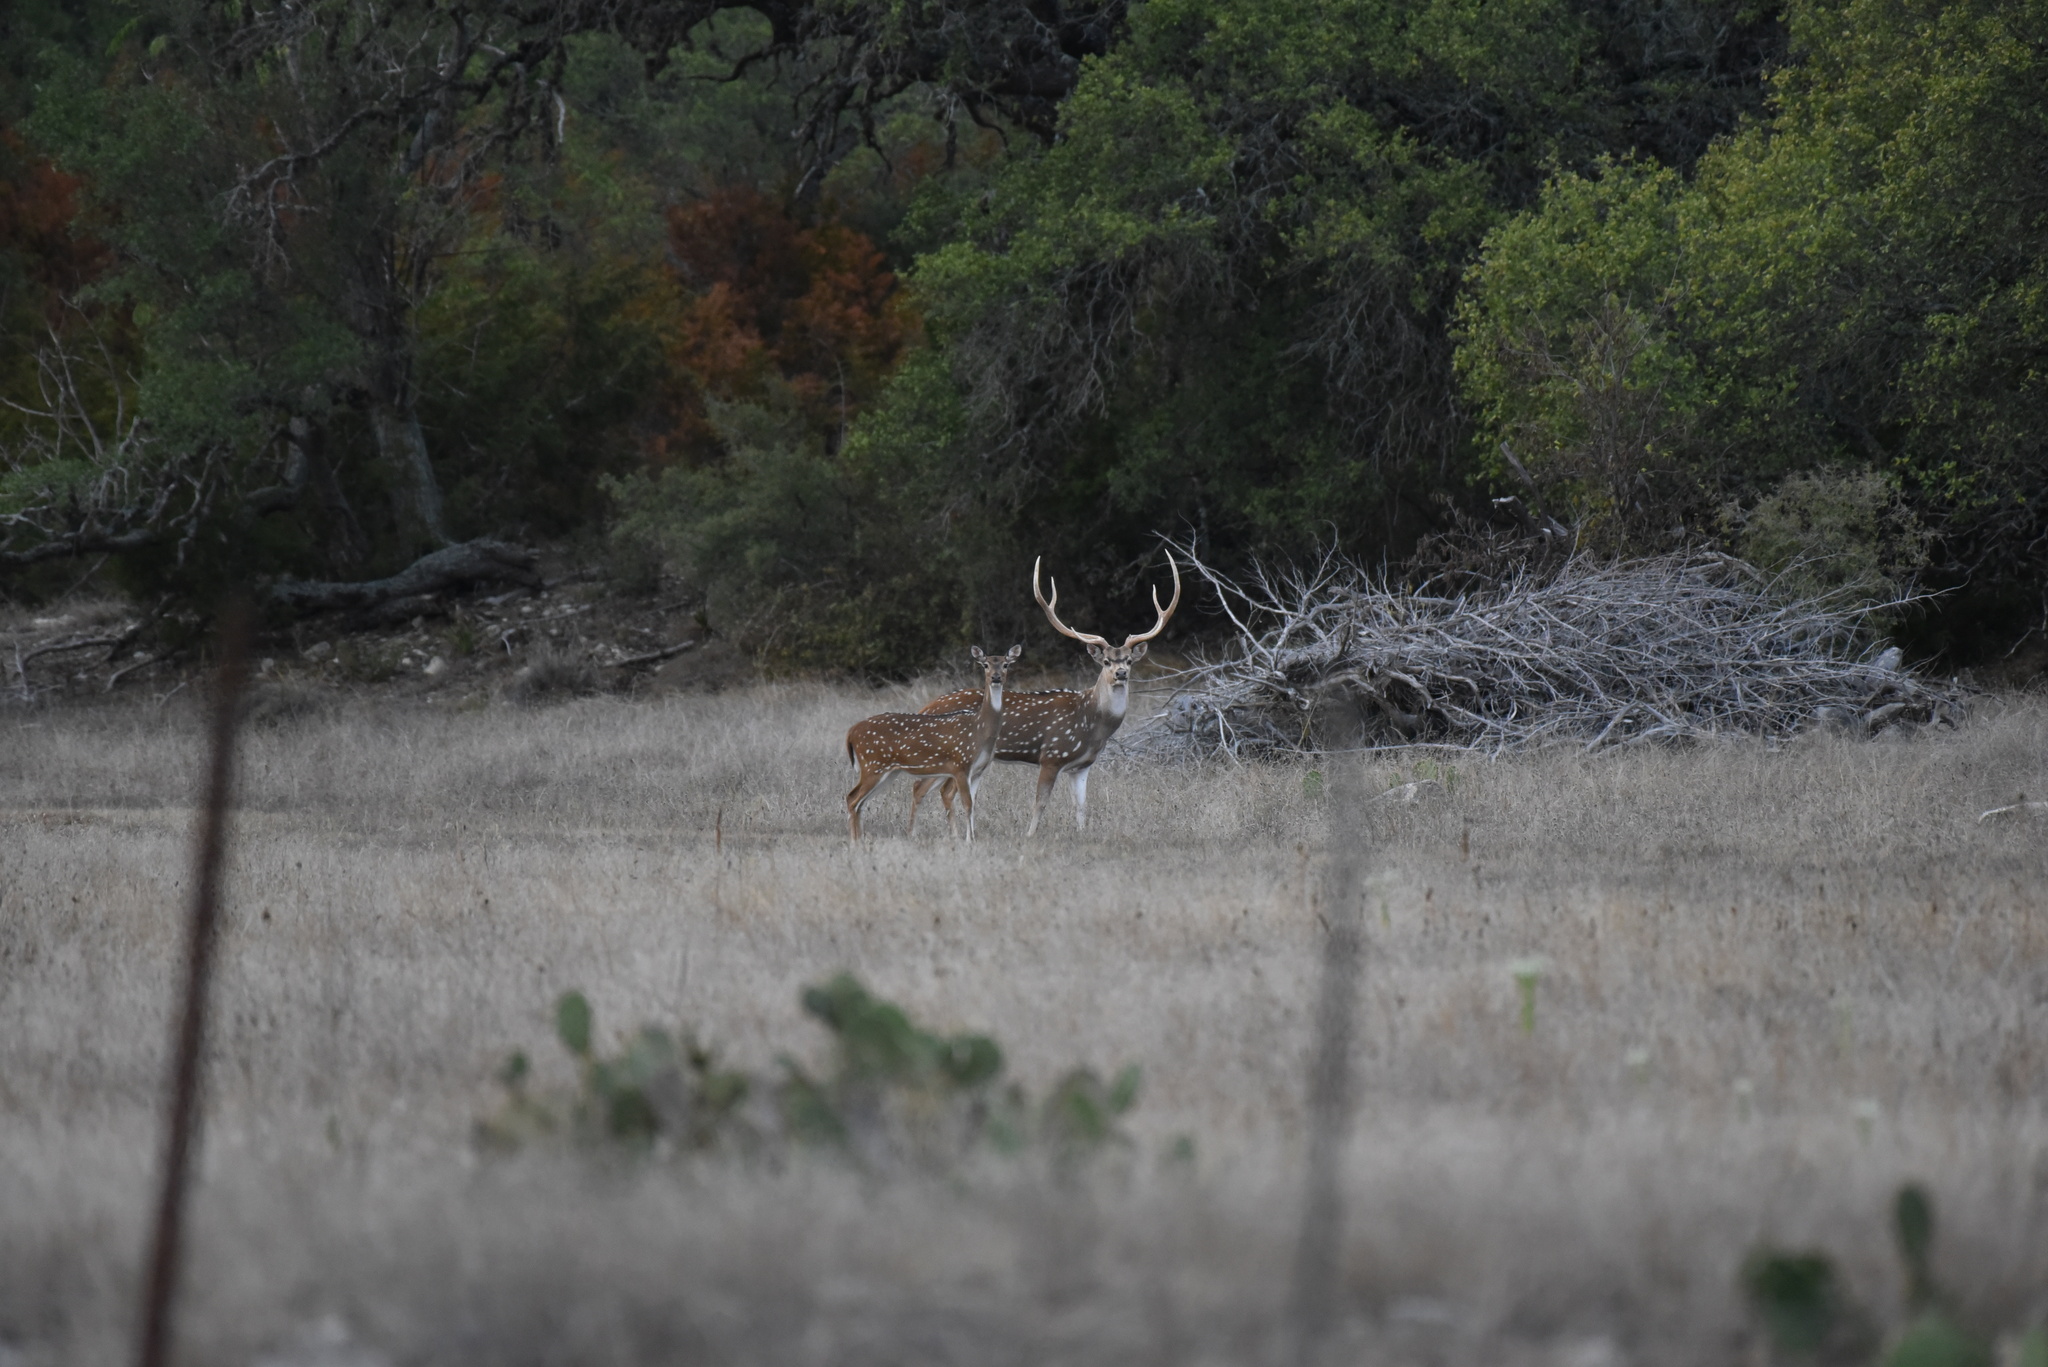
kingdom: Animalia
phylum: Chordata
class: Mammalia
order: Artiodactyla
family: Cervidae
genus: Axis
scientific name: Axis axis
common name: Chital
